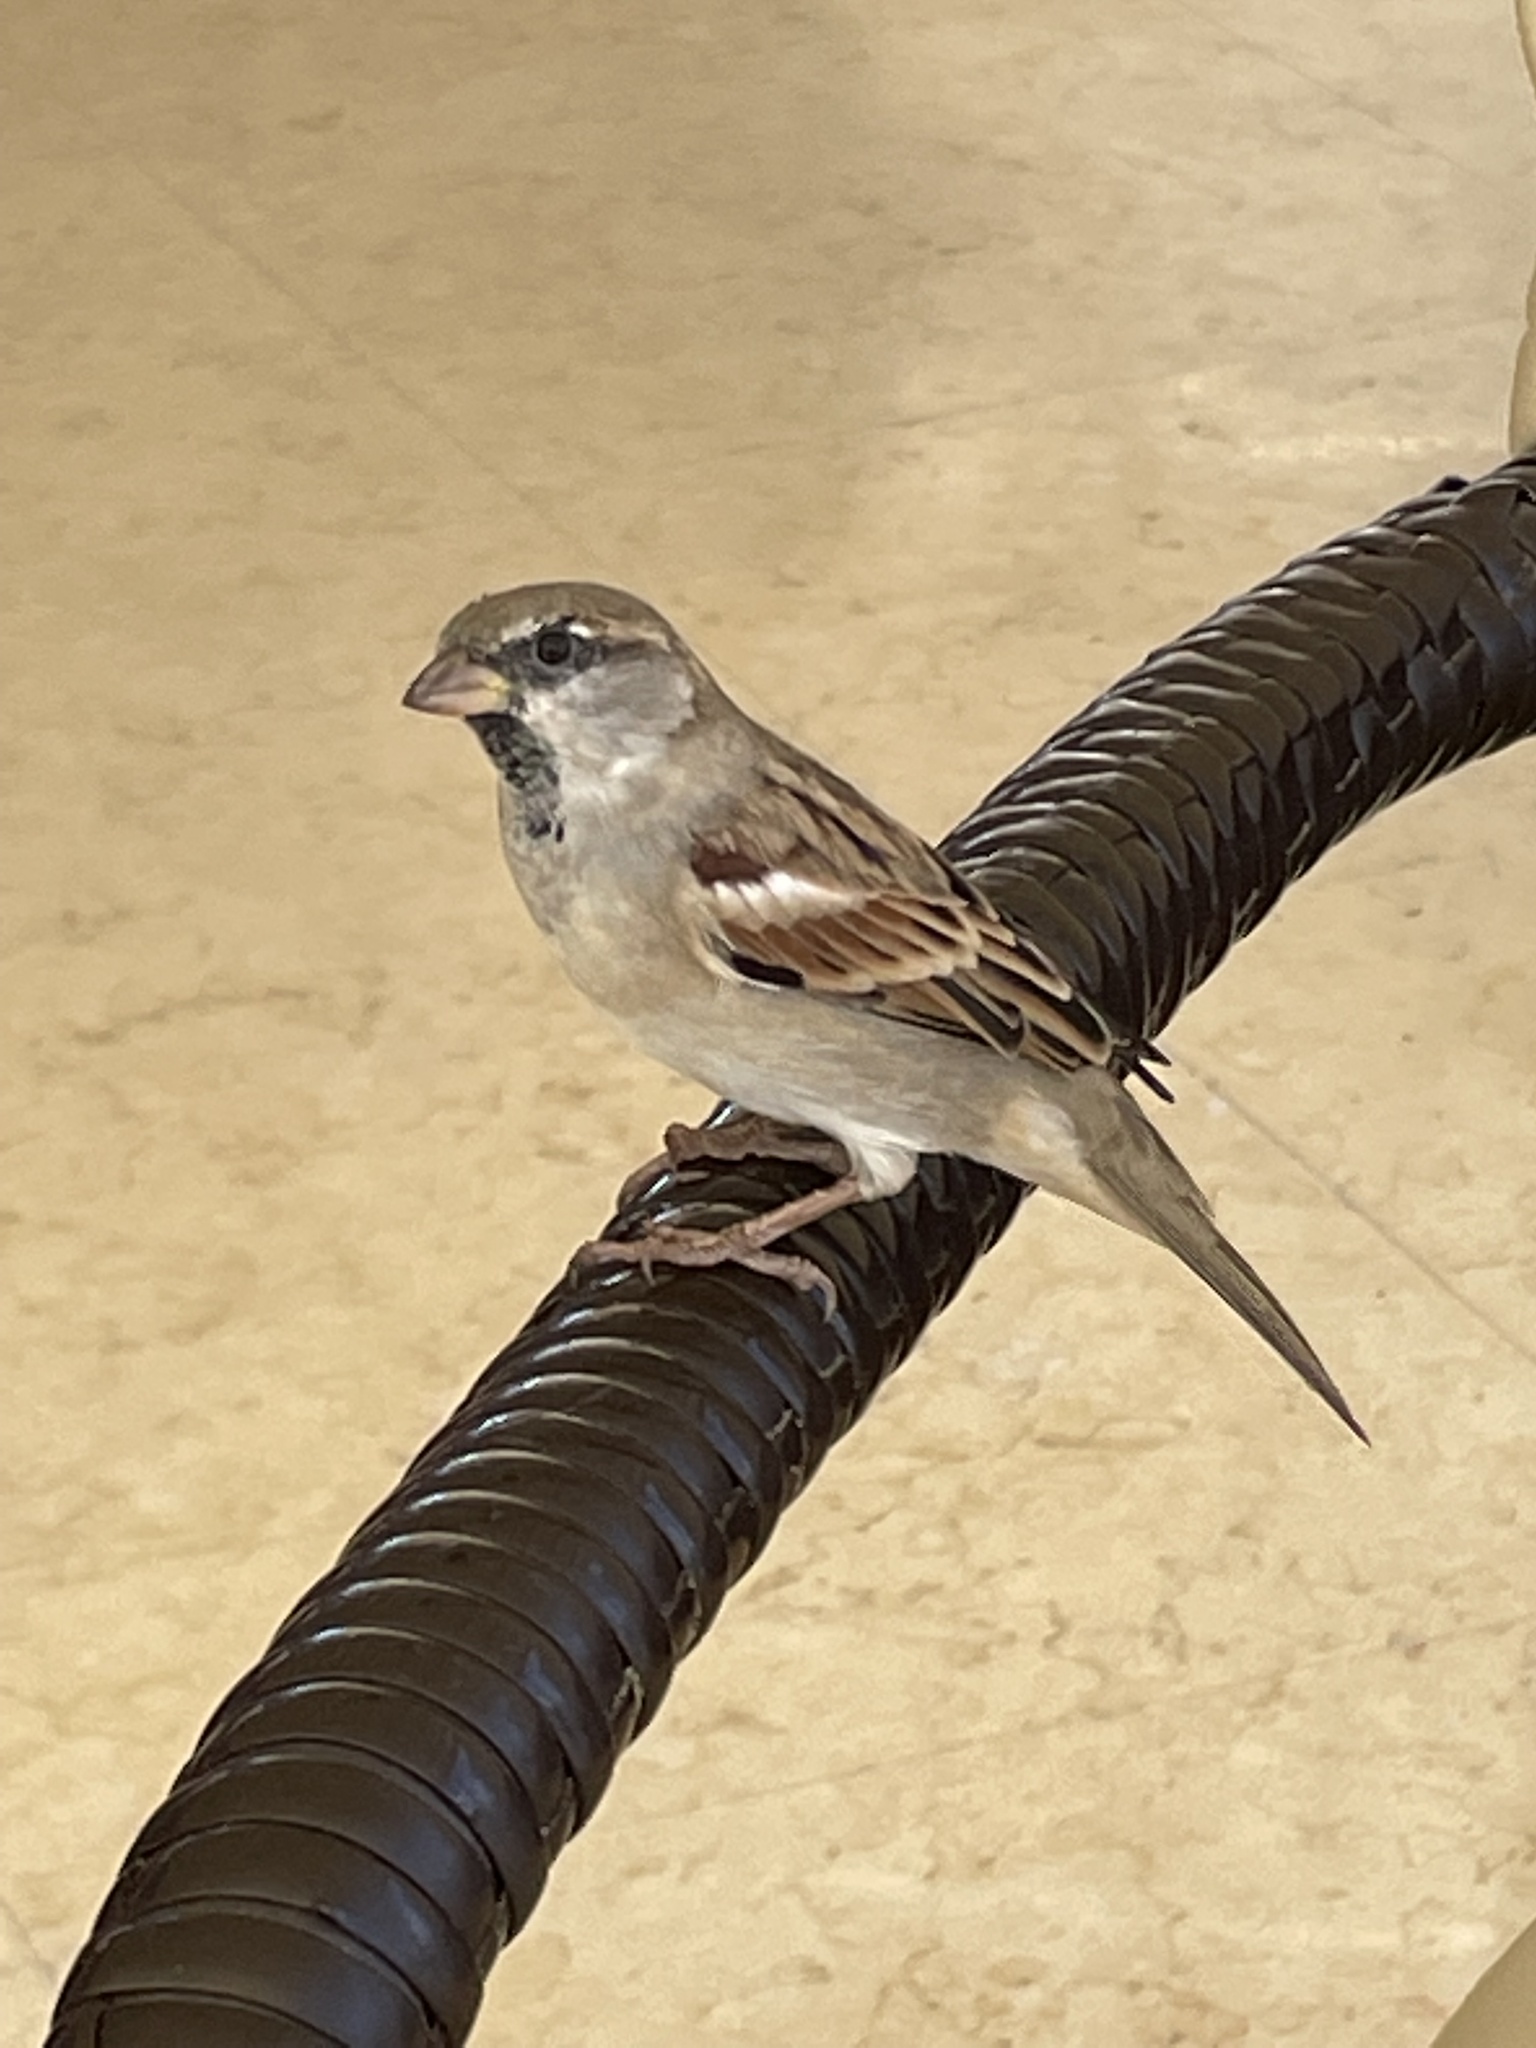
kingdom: Animalia
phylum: Chordata
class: Aves
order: Passeriformes
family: Passeridae
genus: Passer
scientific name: Passer domesticus
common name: House sparrow
